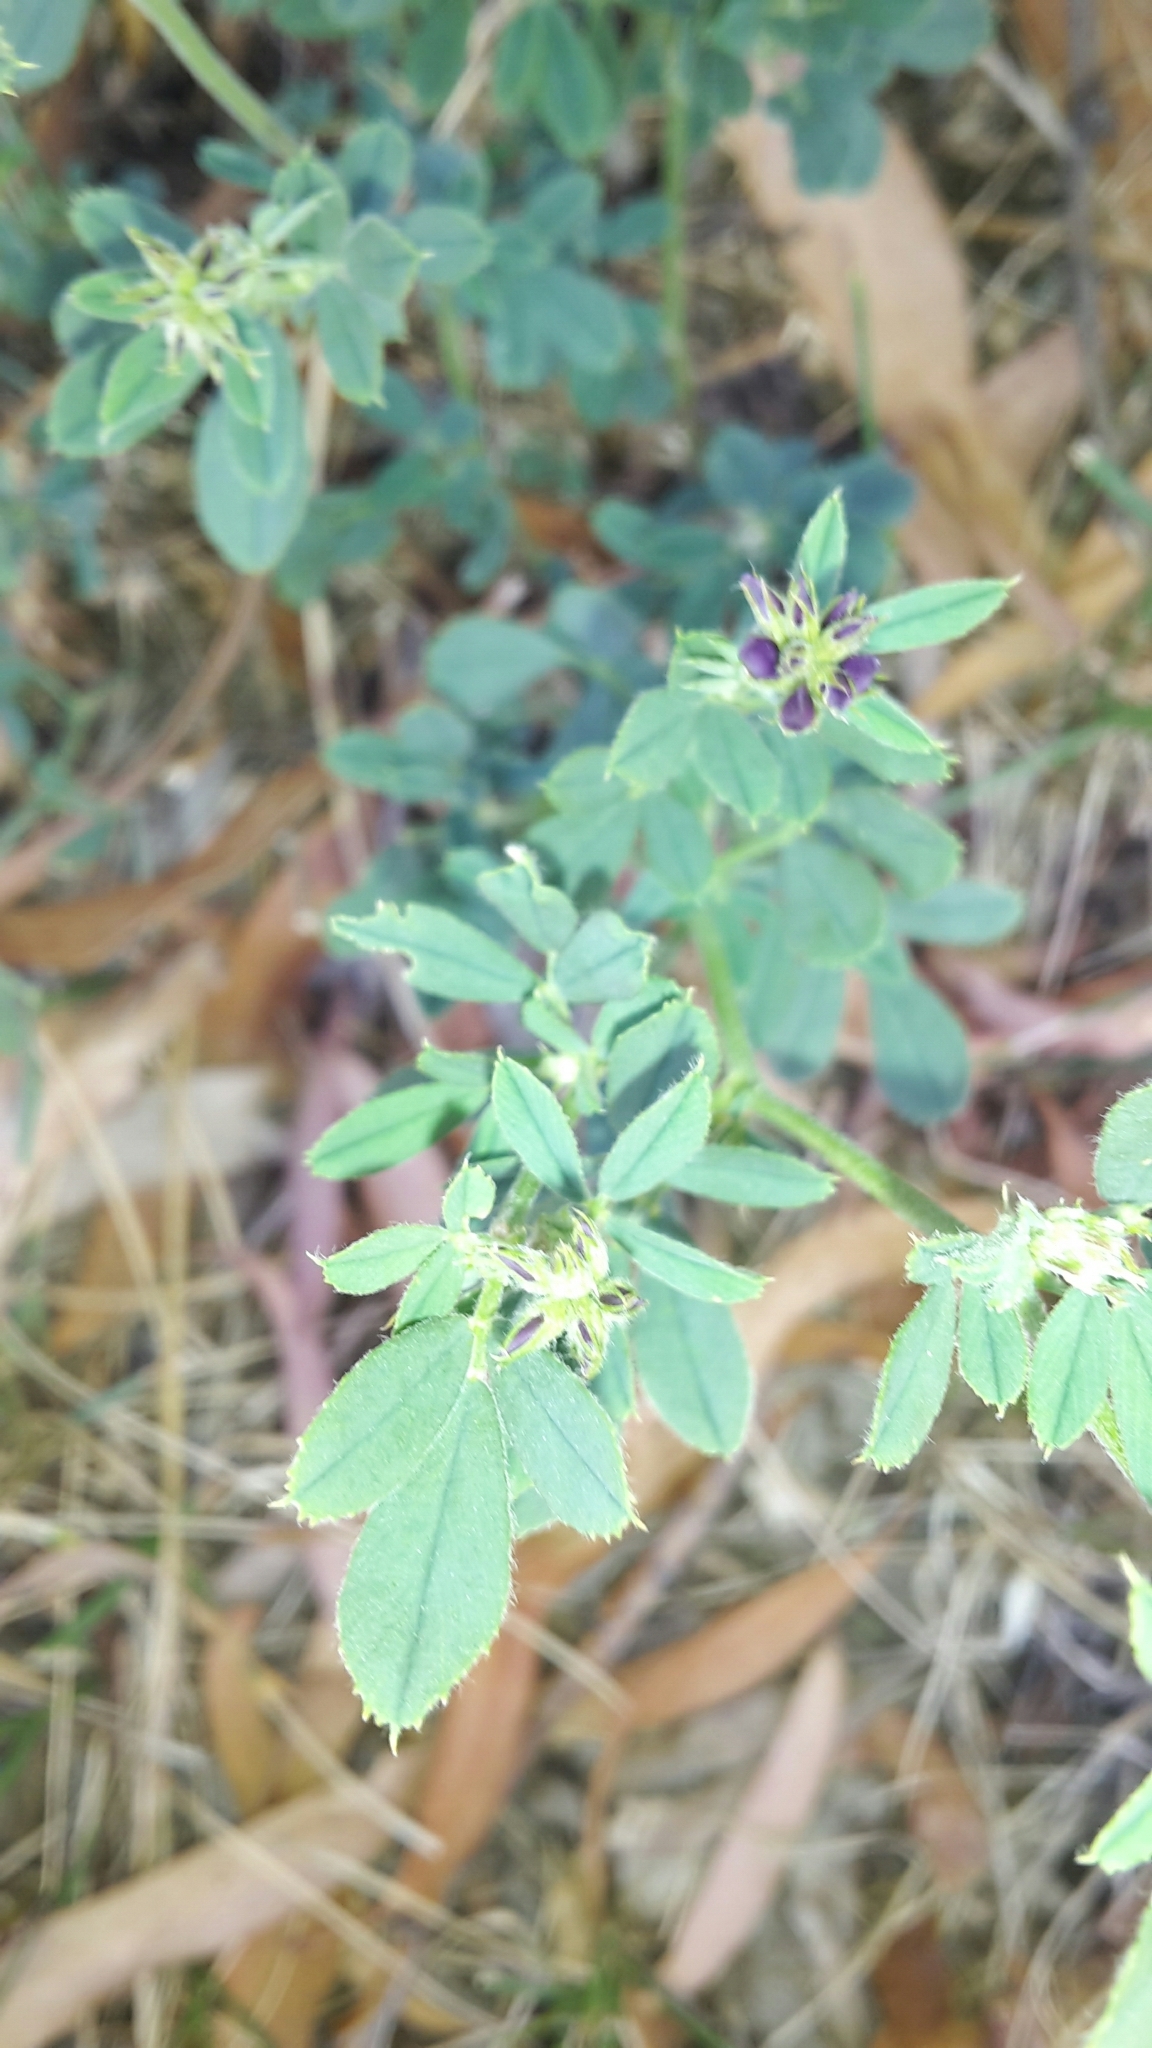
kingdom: Plantae
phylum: Tracheophyta
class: Magnoliopsida
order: Fabales
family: Fabaceae
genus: Medicago
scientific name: Medicago sativa
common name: Alfalfa
